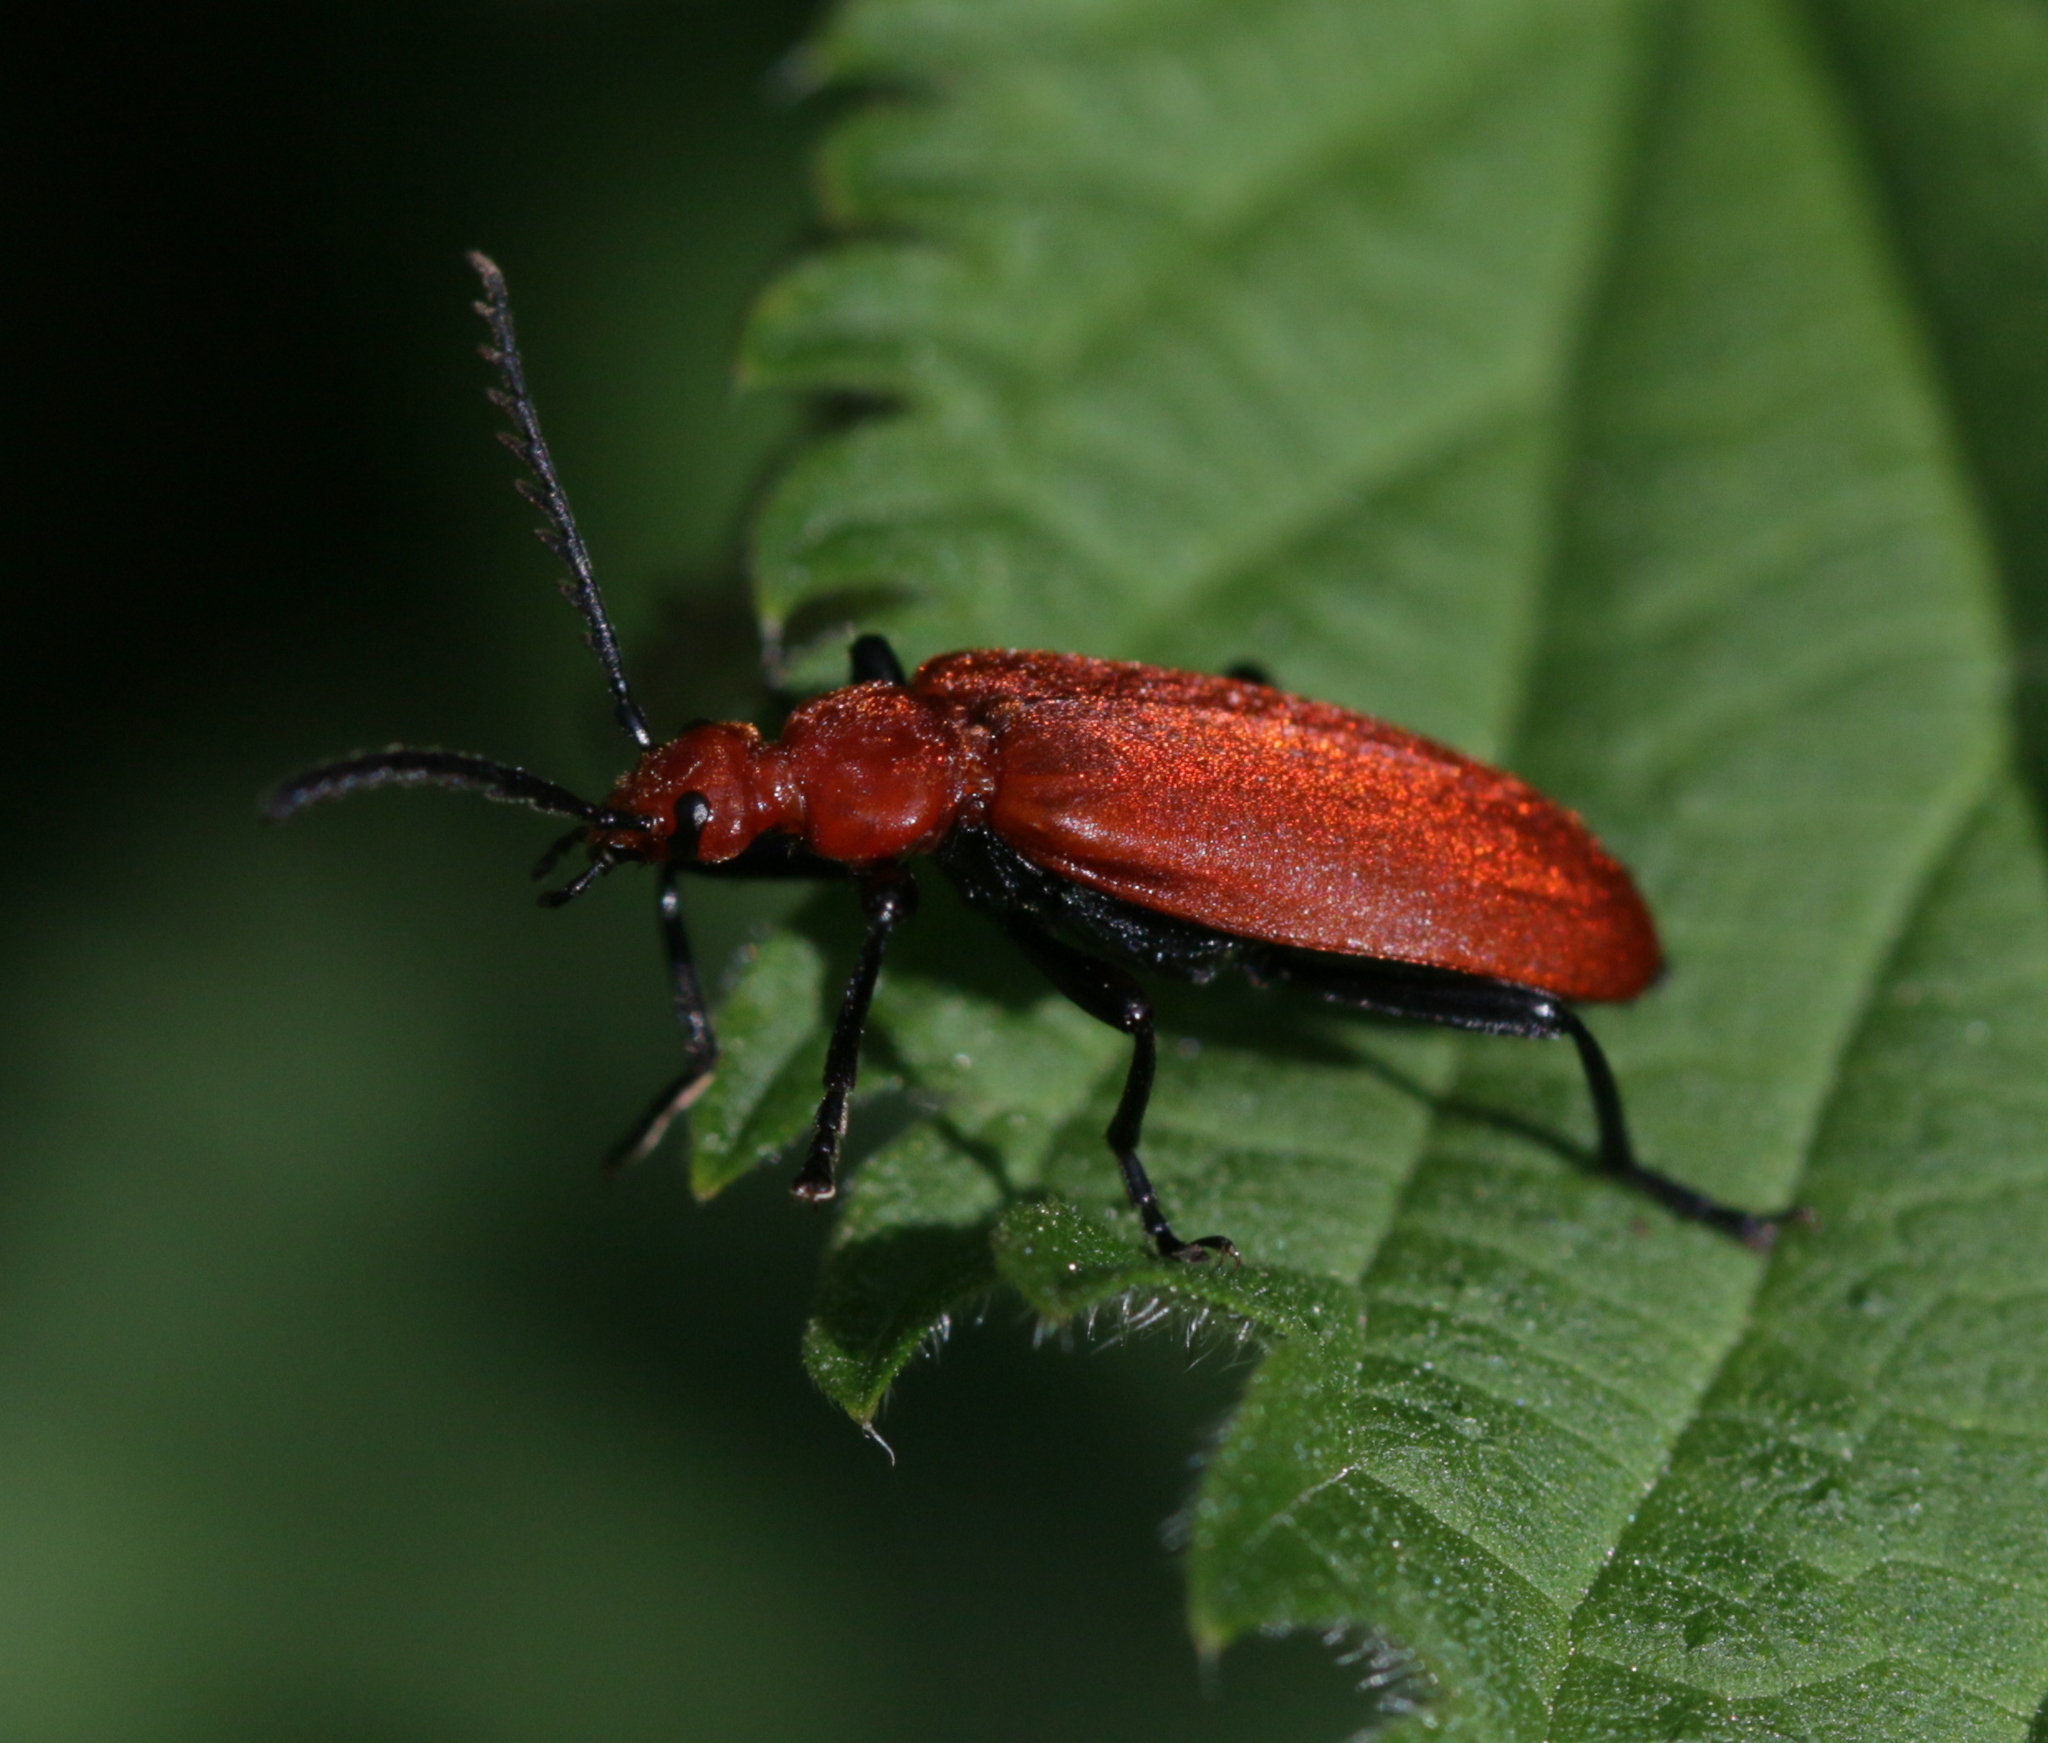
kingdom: Animalia
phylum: Arthropoda
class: Insecta
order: Coleoptera
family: Pyrochroidae
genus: Pyrochroa
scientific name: Pyrochroa serraticornis
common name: Red-headed cardinal beetle
